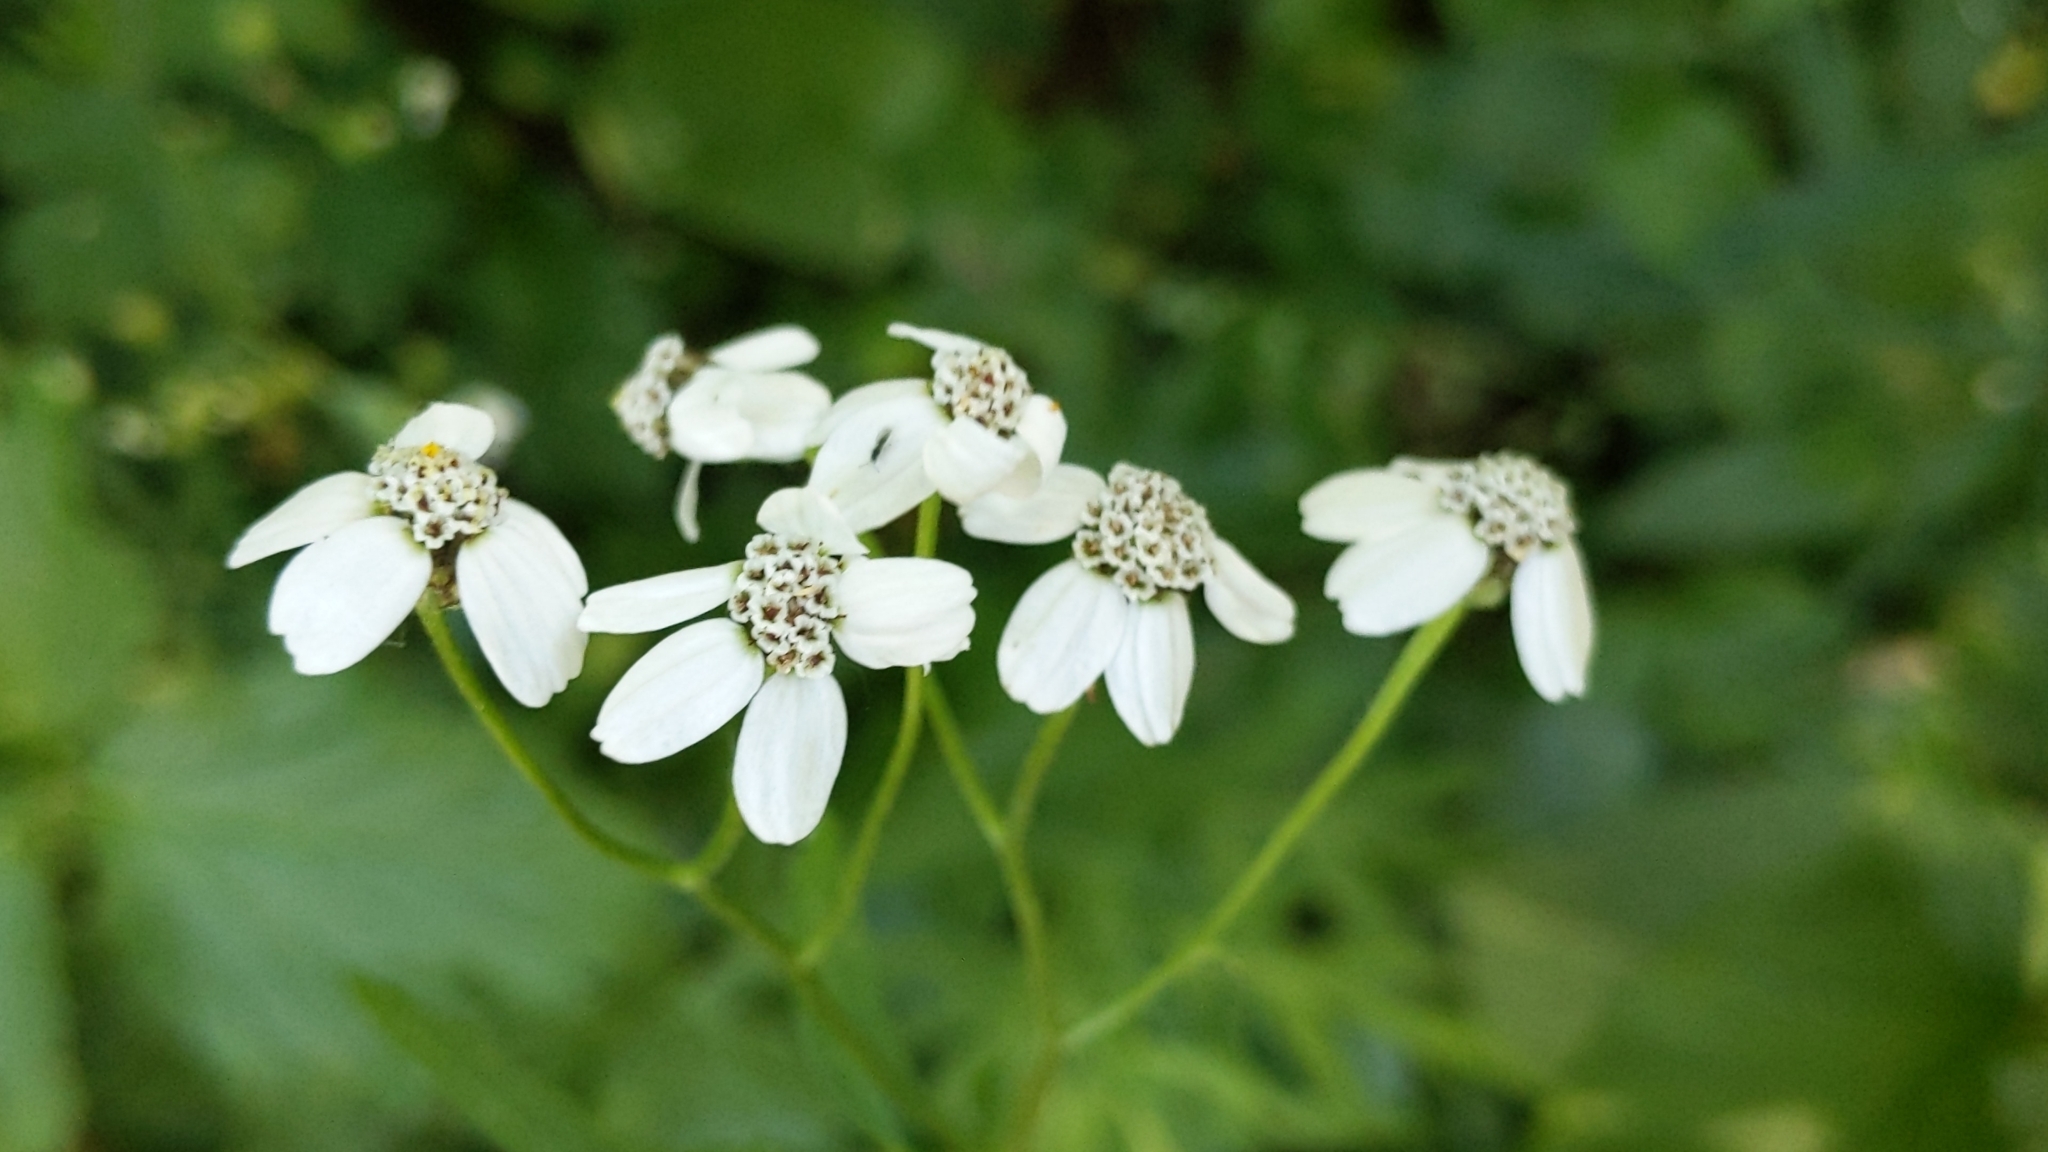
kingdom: Plantae
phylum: Tracheophyta
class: Magnoliopsida
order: Asterales
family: Asteraceae
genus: Achillea
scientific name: Achillea macrophylla
